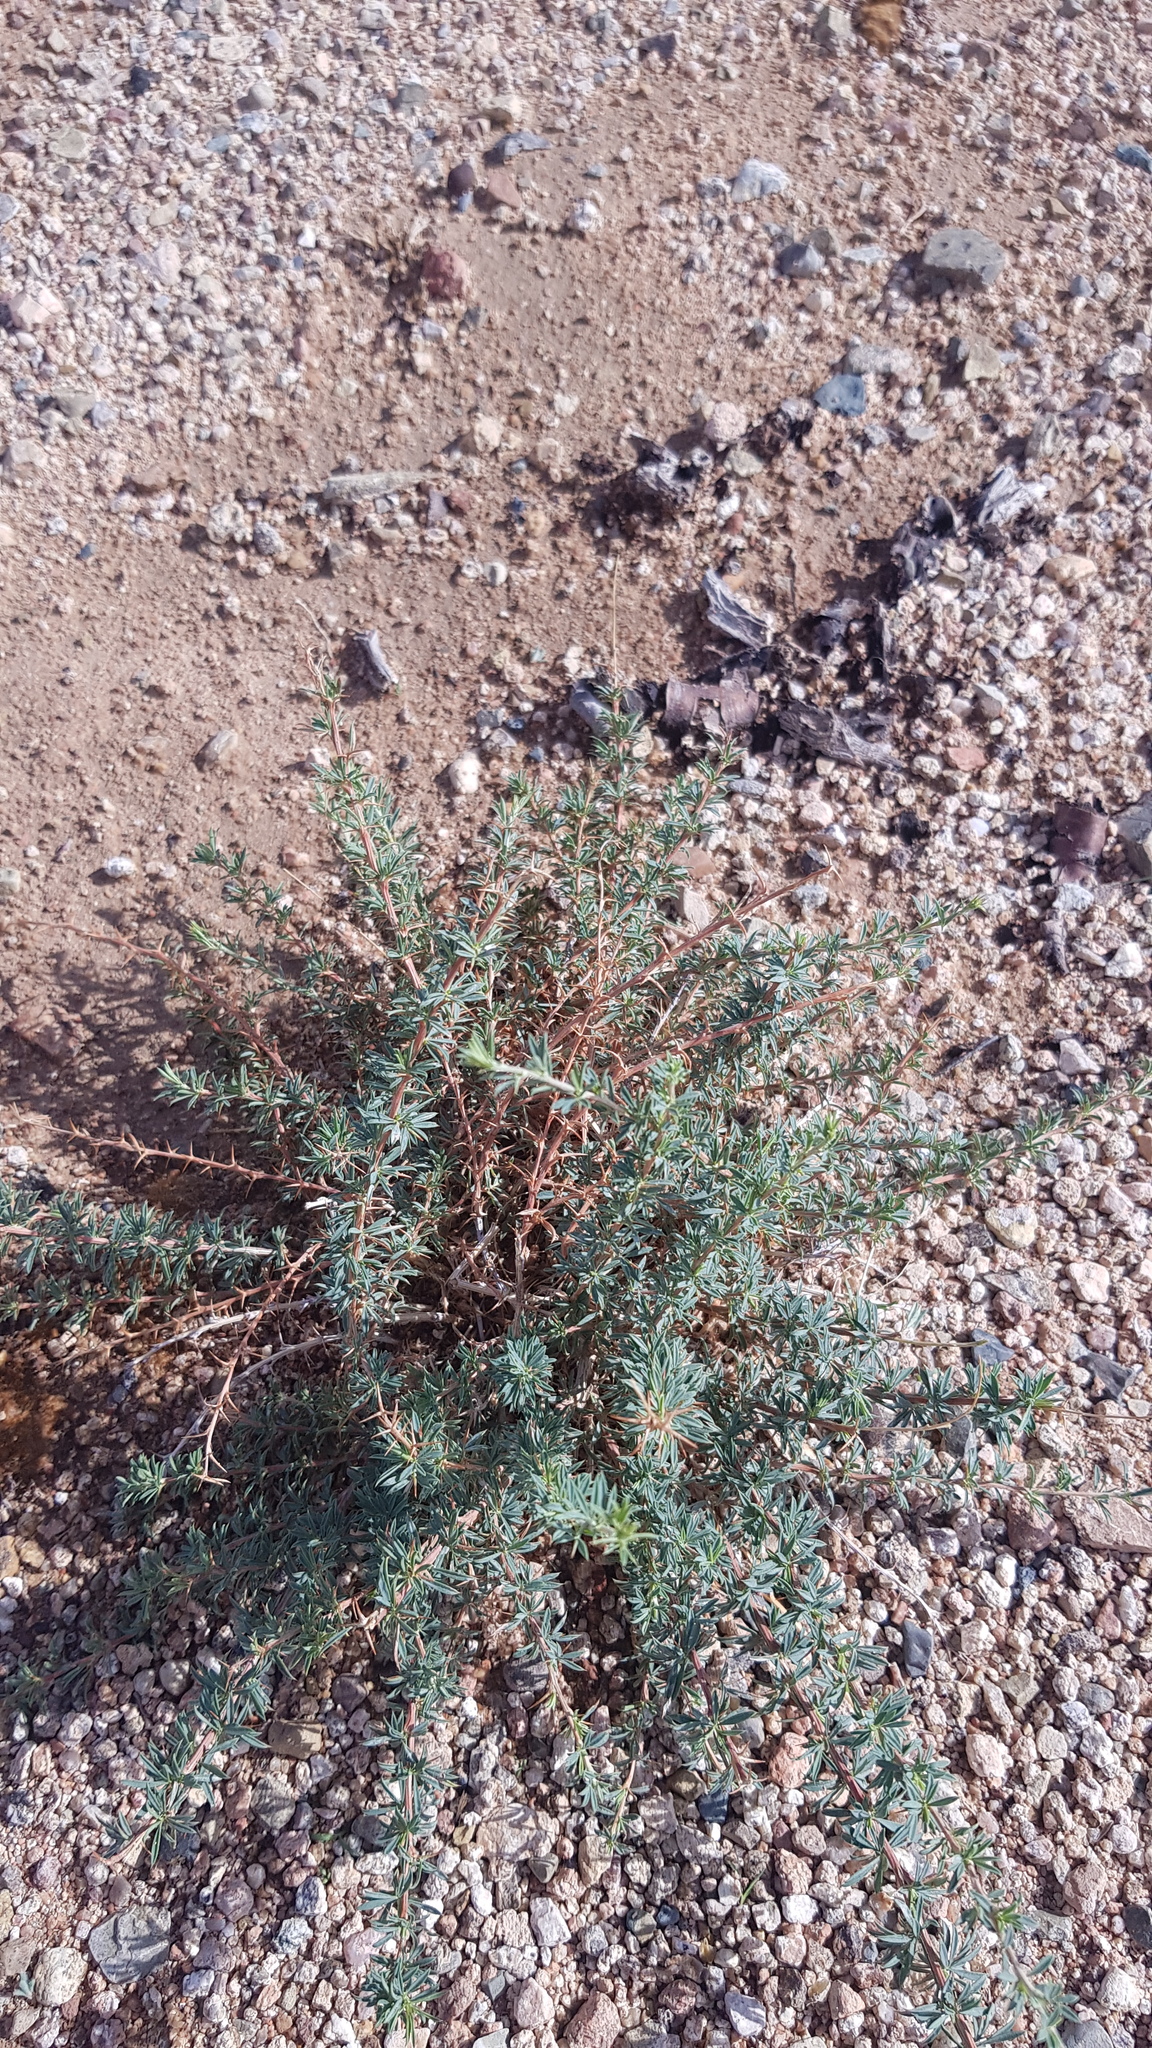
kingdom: Plantae
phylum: Tracheophyta
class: Magnoliopsida
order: Fabales
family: Fabaceae
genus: Caragana
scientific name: Caragana pygmaea
